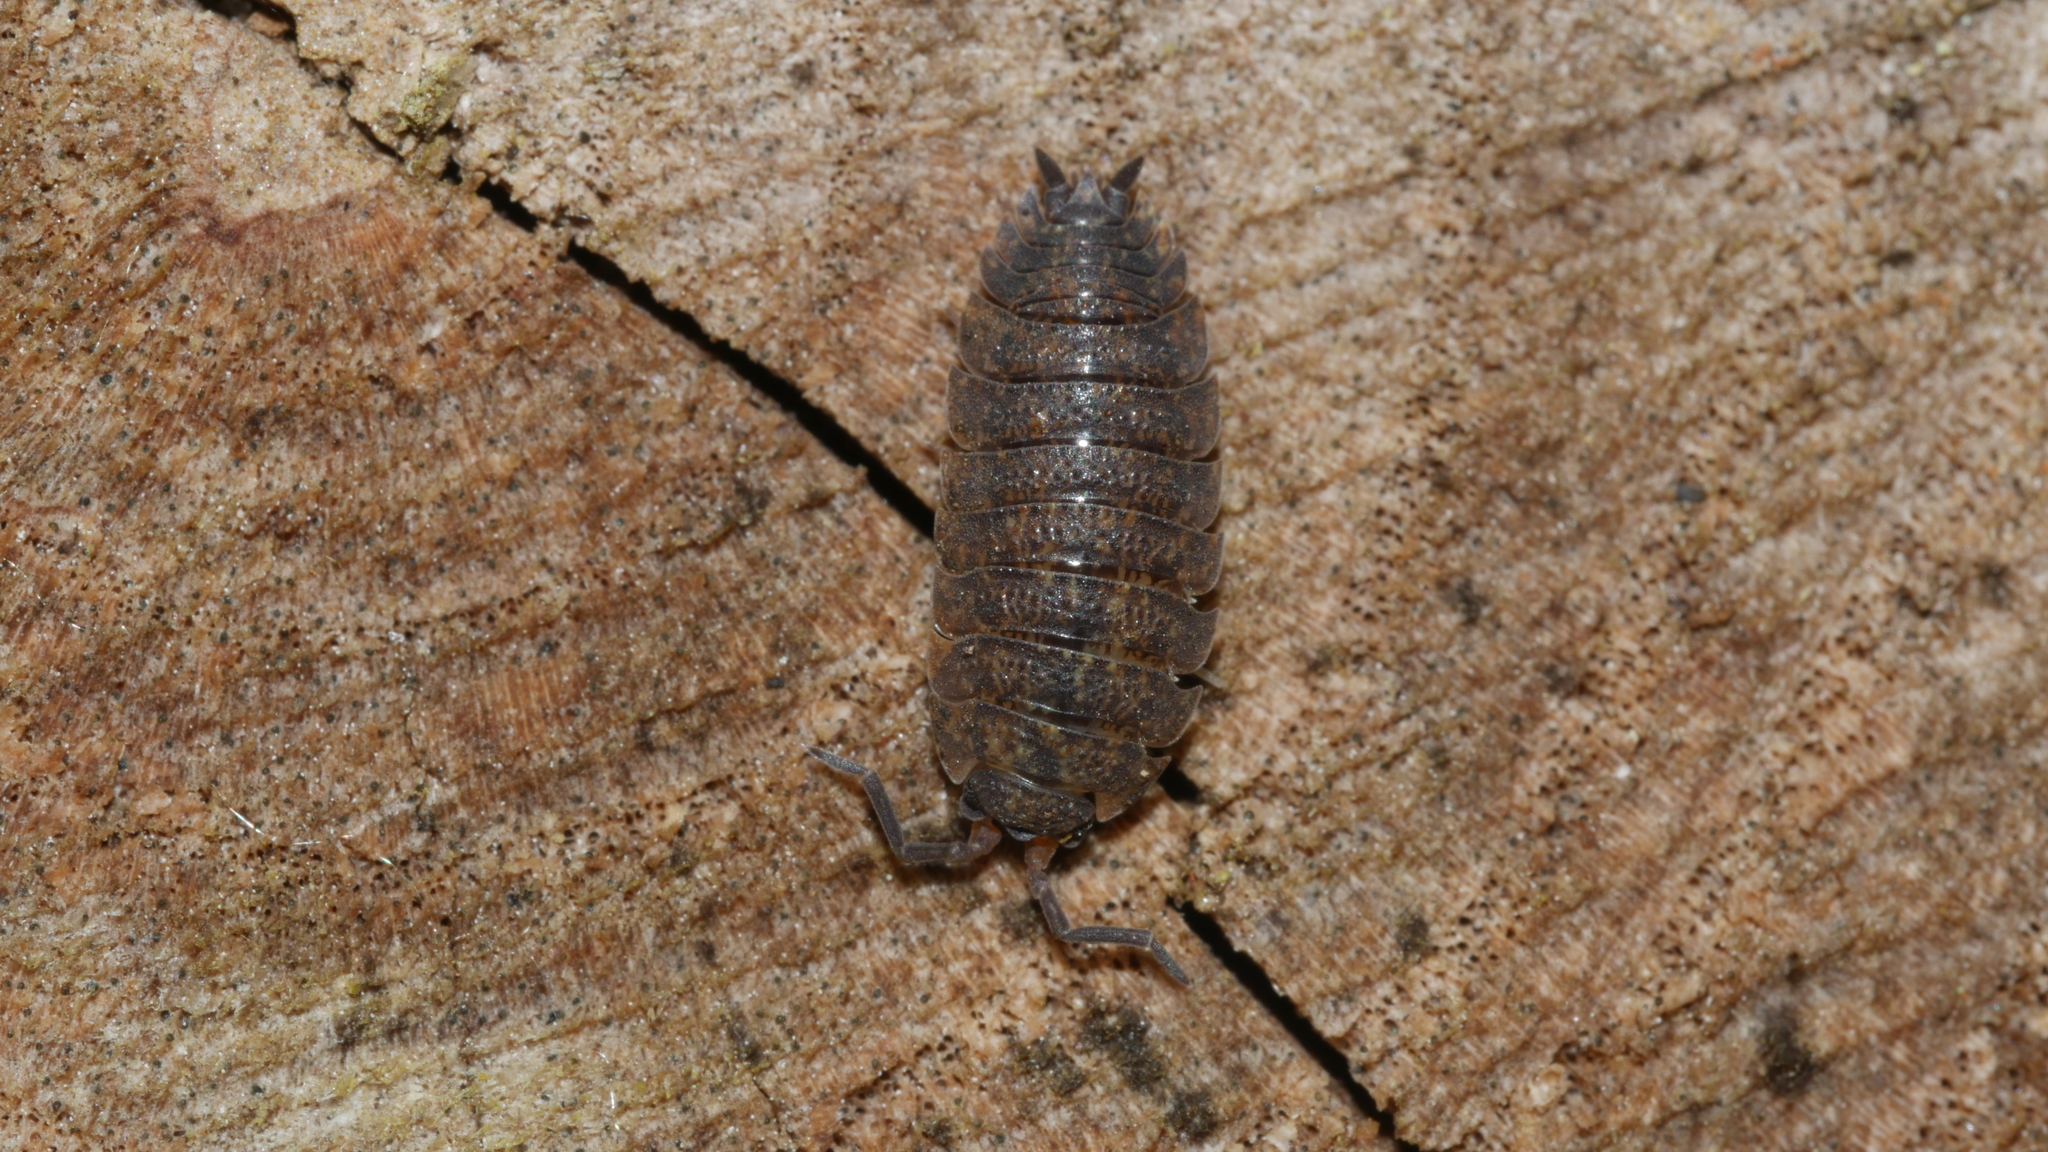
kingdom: Animalia
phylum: Arthropoda
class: Malacostraca
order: Isopoda
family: Porcellionidae
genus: Porcellio
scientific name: Porcellio scaber
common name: Common rough woodlouse
